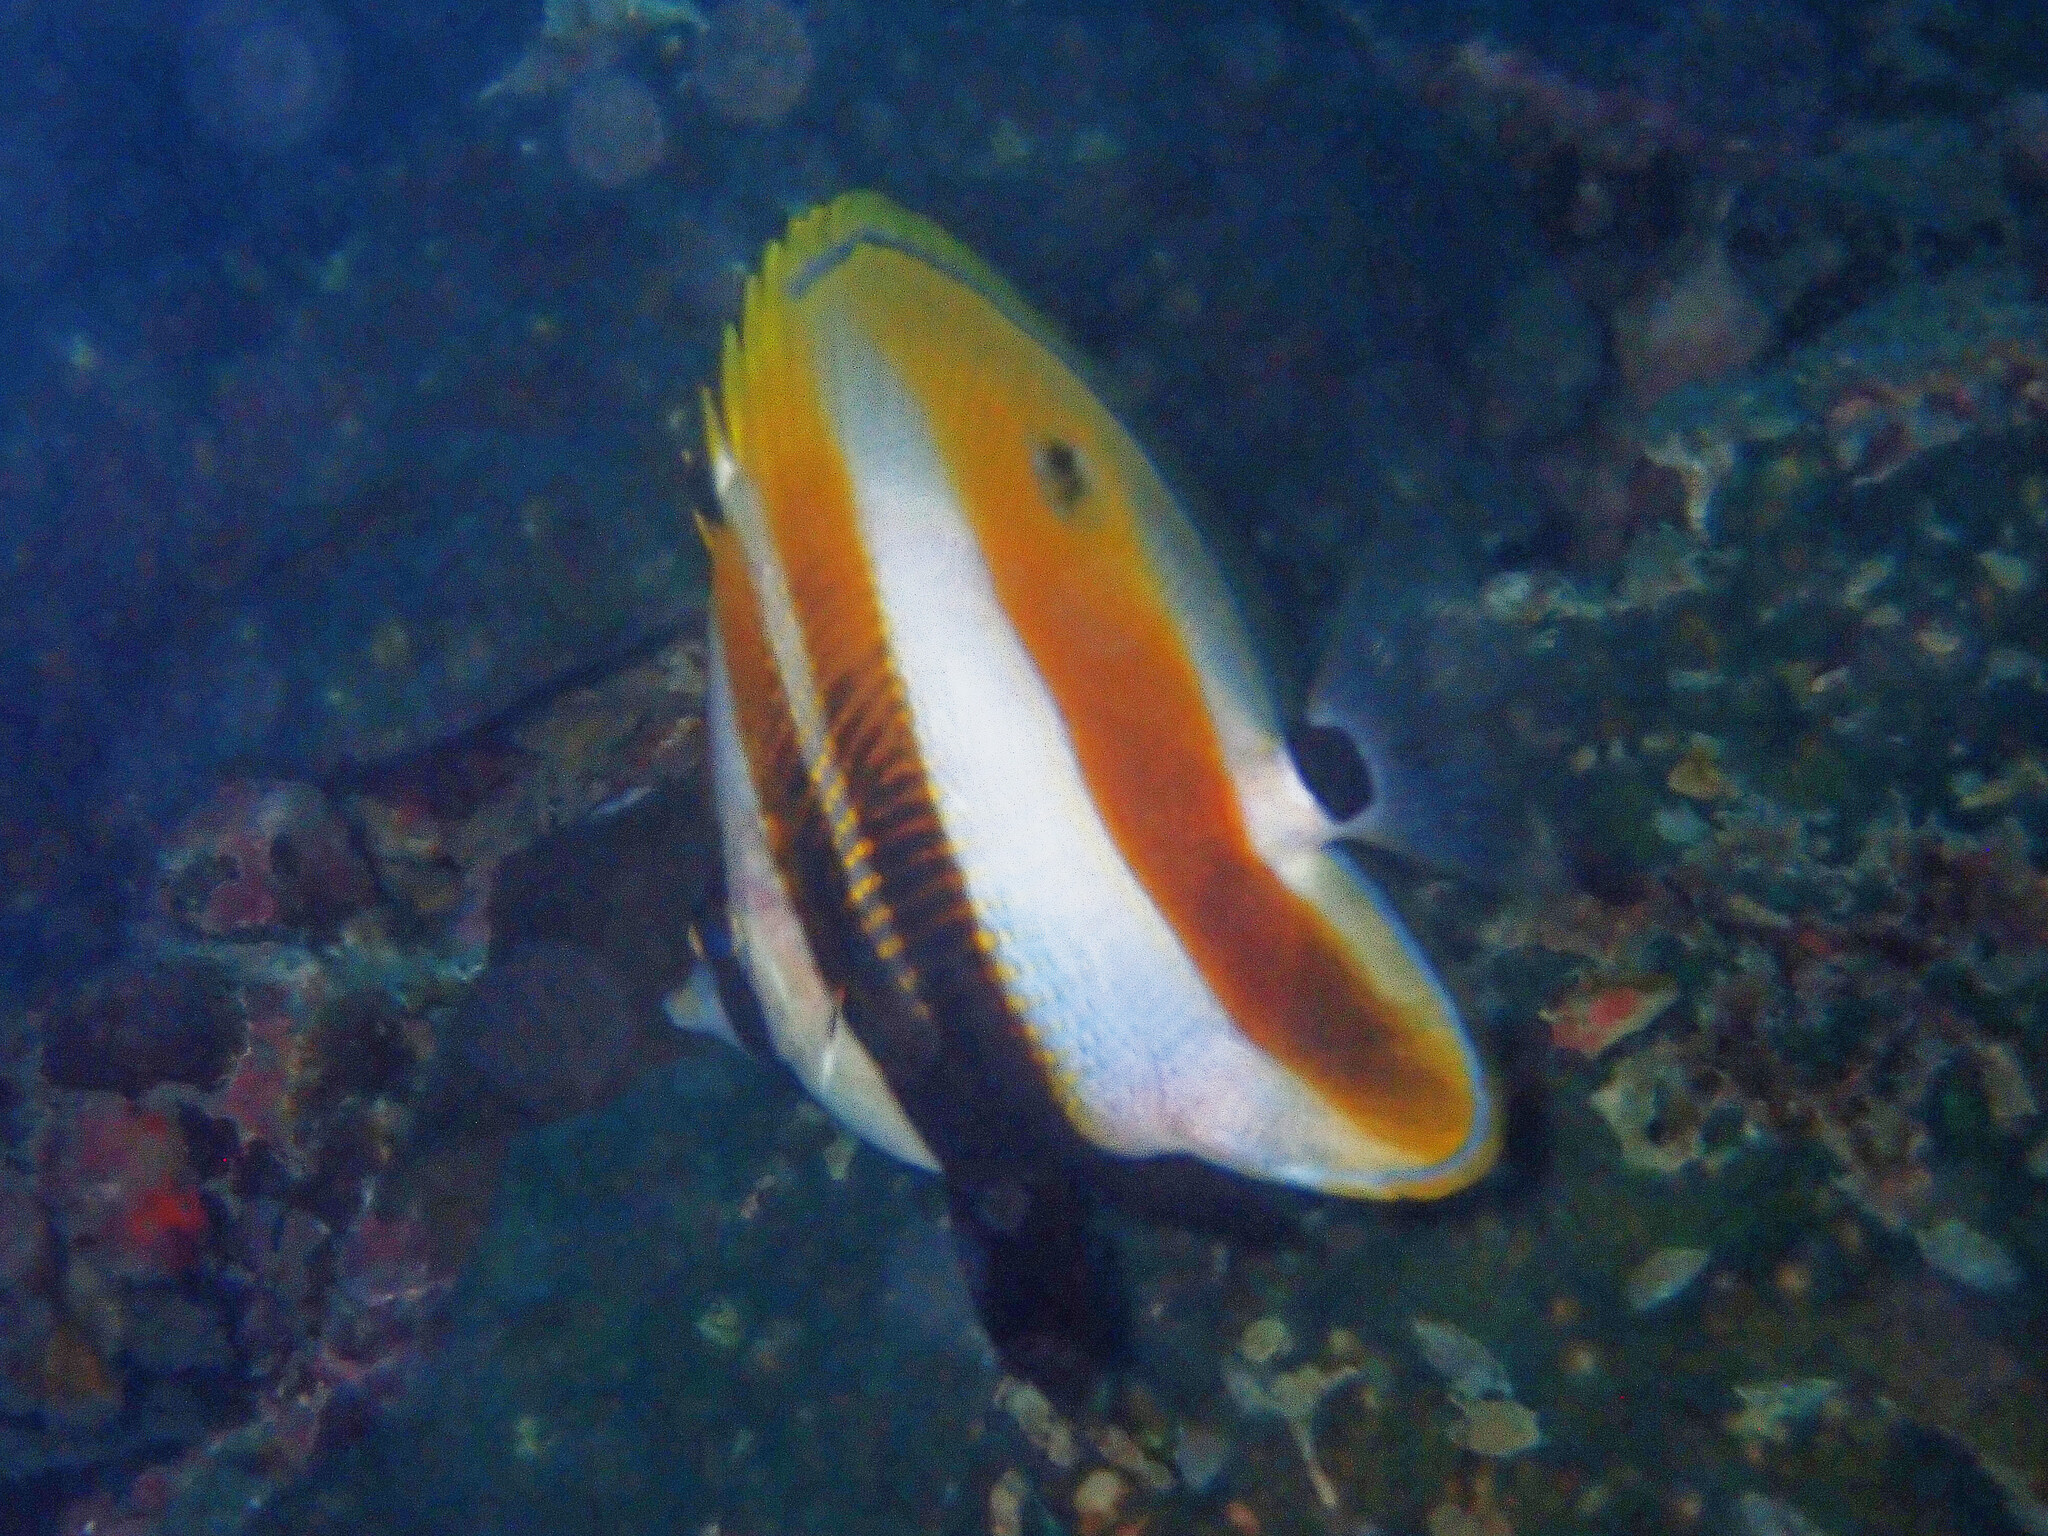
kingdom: Animalia
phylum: Chordata
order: Perciformes
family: Chaetodontidae
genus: Coradion
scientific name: Coradion chrysozonus
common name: Orange-banded coralfish
